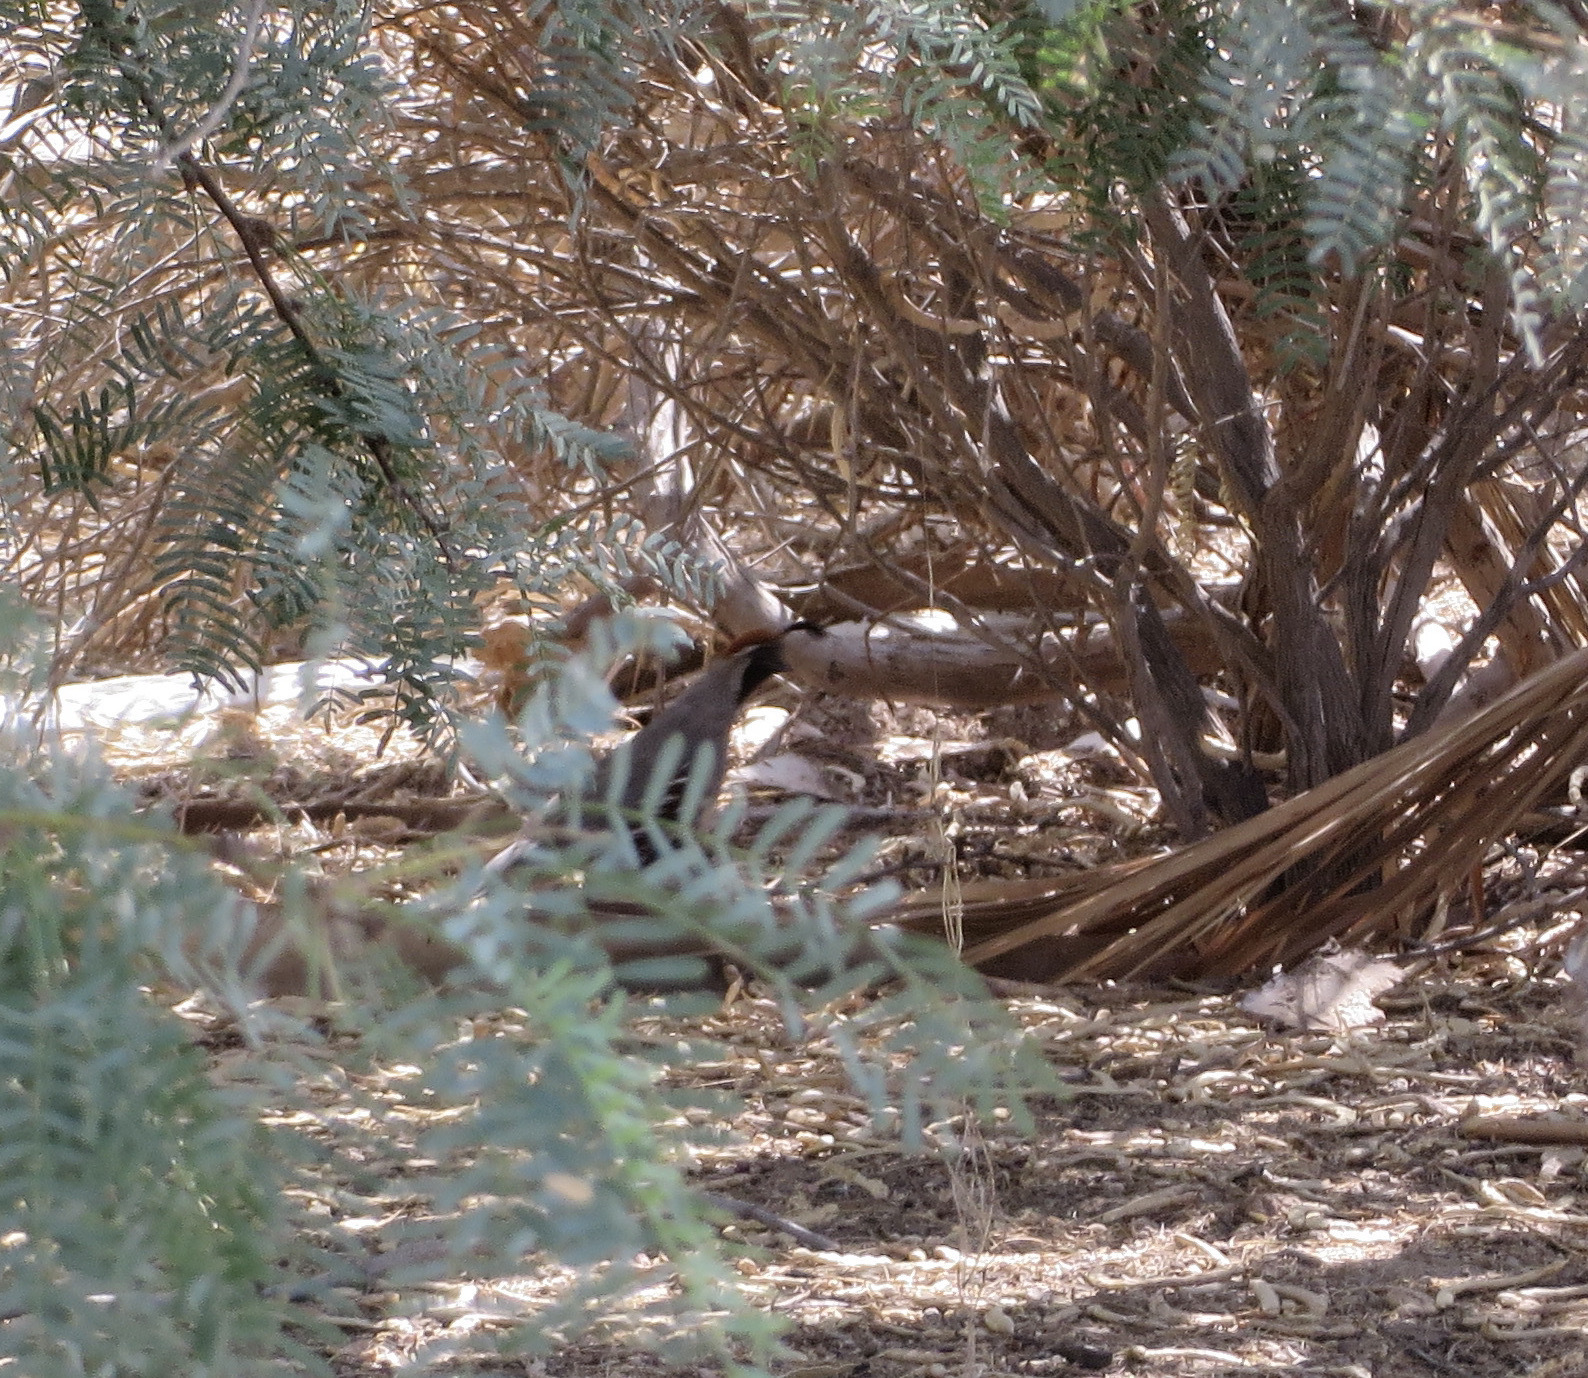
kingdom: Animalia
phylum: Chordata
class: Aves
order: Galliformes
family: Odontophoridae
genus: Callipepla
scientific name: Callipepla gambelii
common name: Gambel's quail
